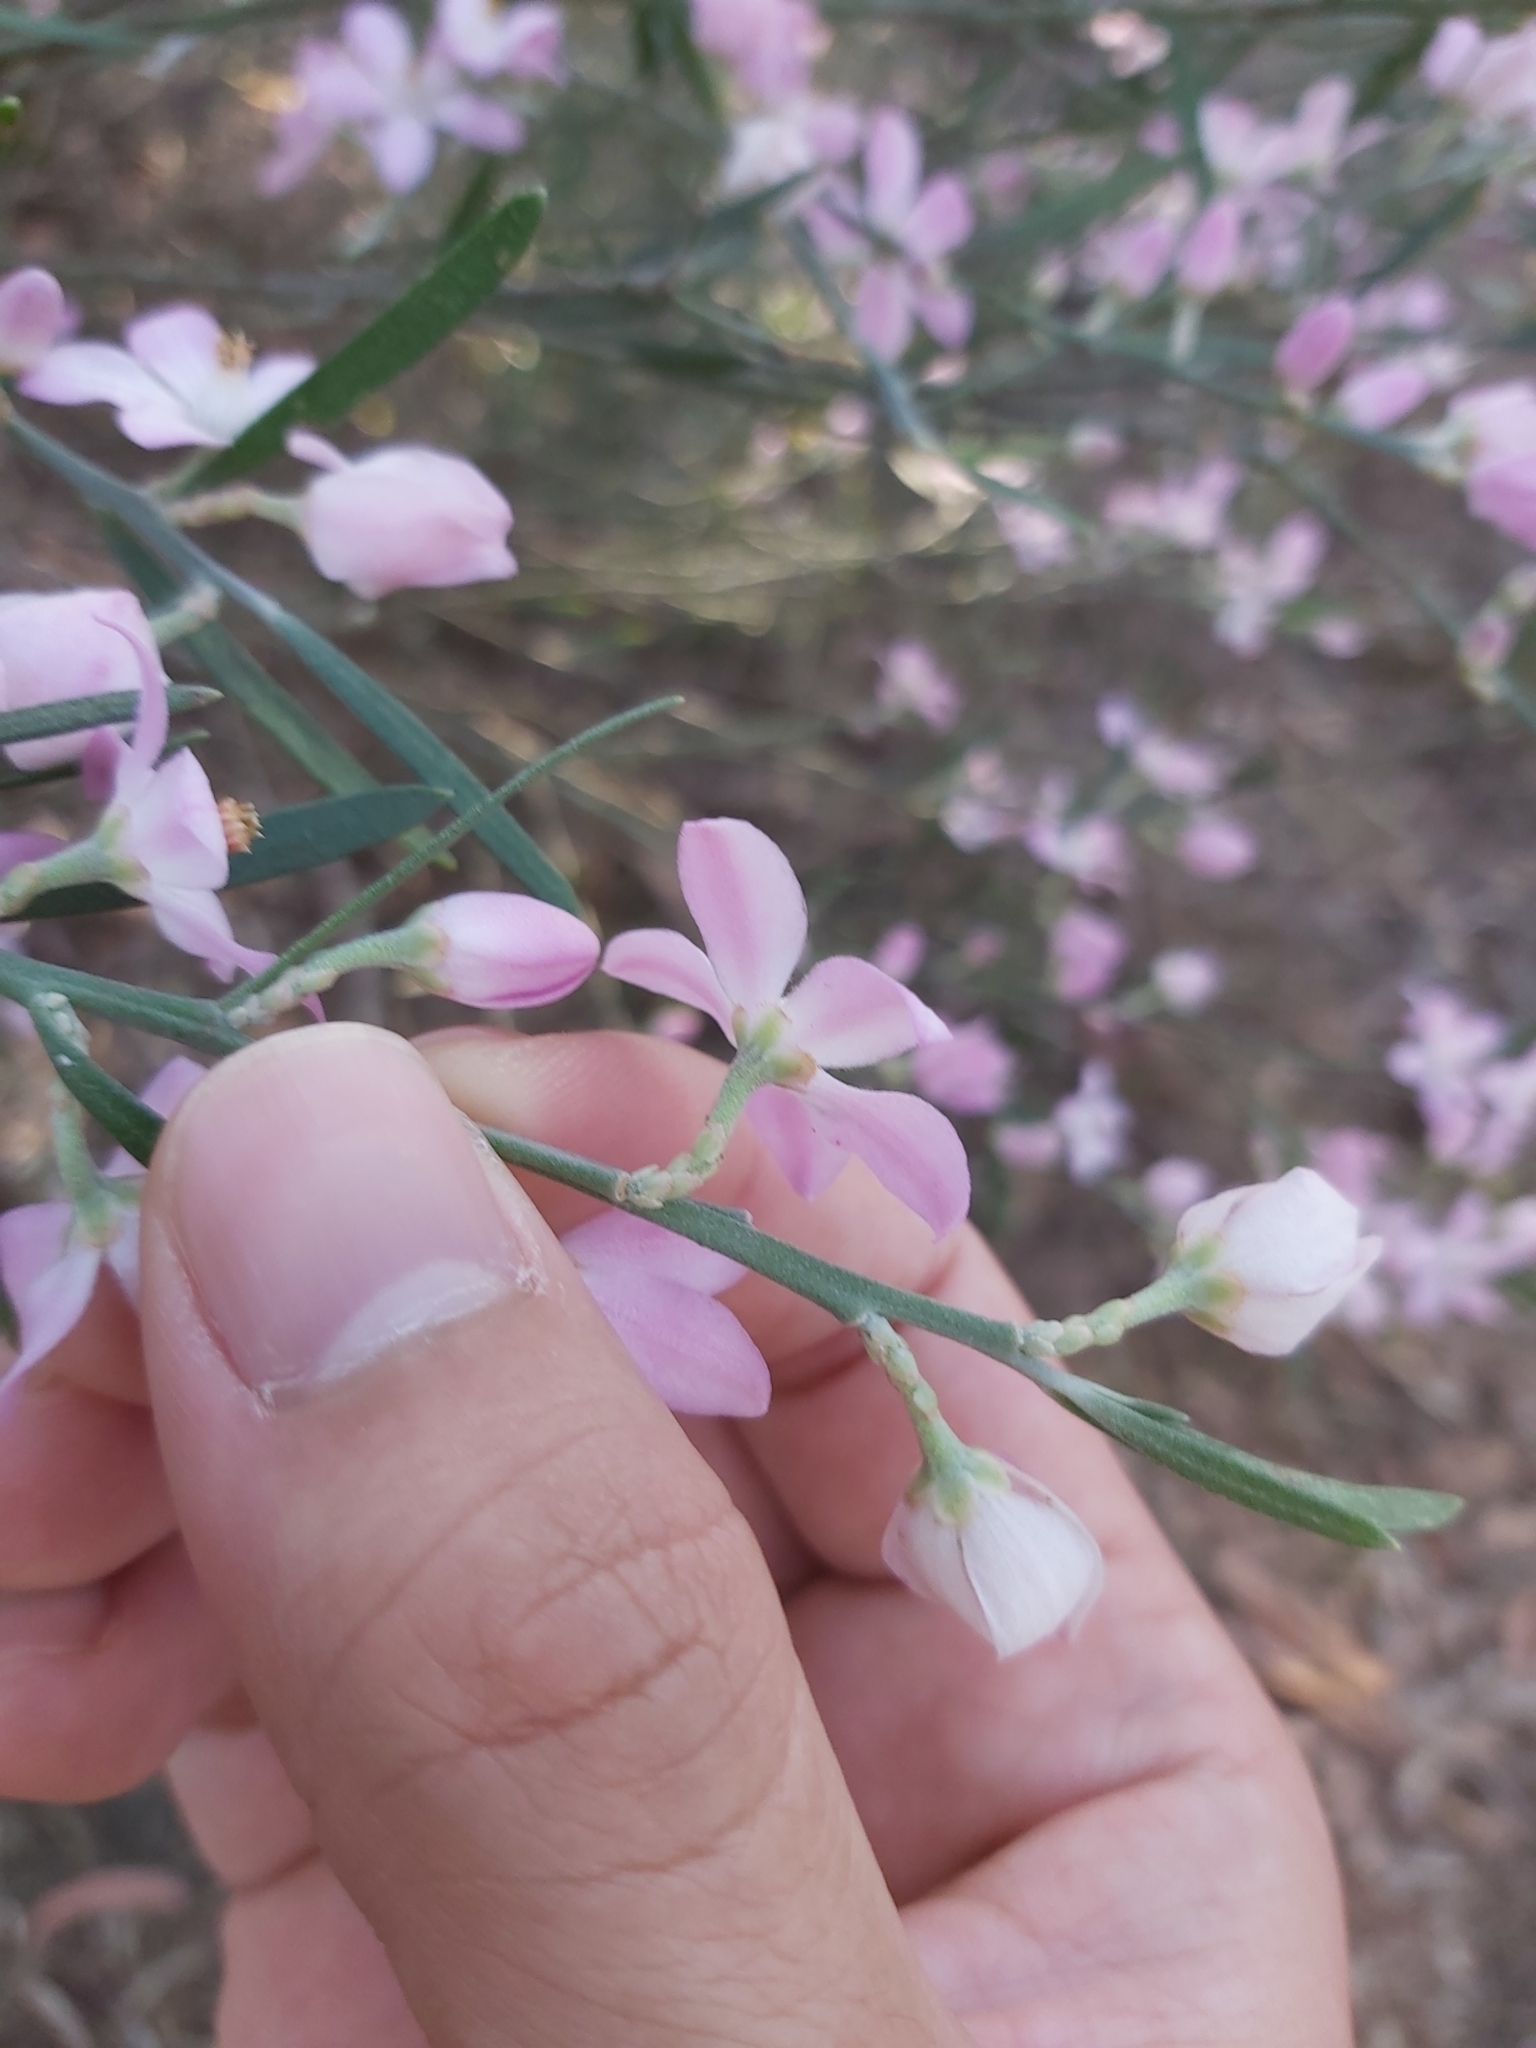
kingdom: Plantae
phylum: Tracheophyta
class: Magnoliopsida
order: Sapindales
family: Rutaceae
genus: Eriostemon
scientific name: Eriostemon australasius
